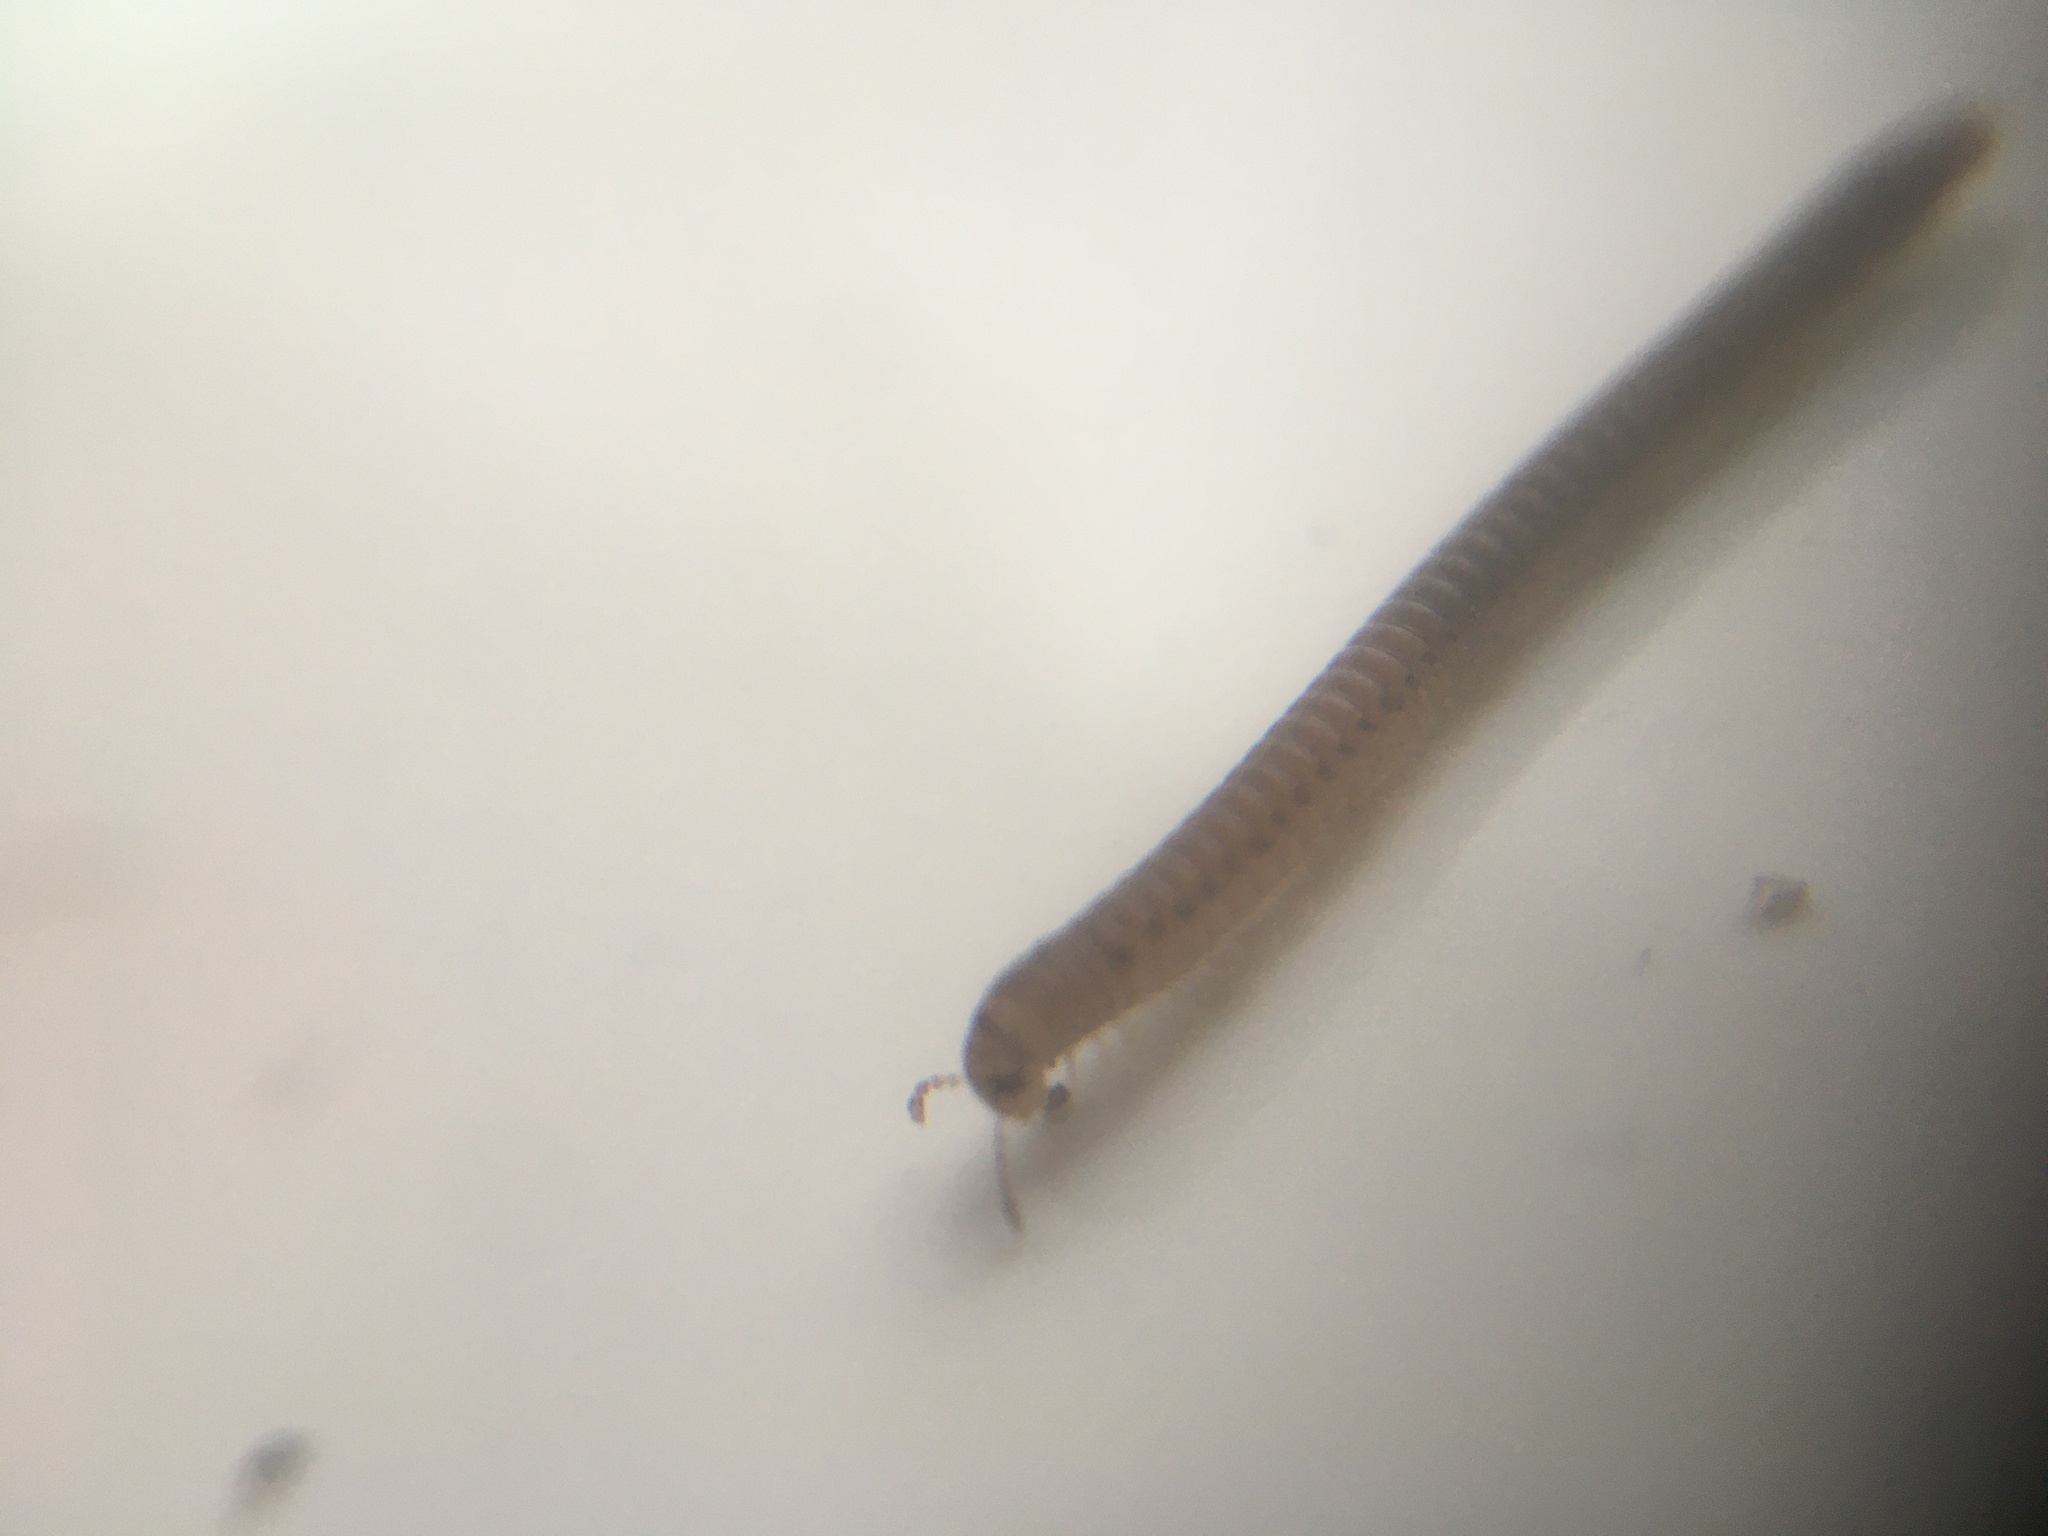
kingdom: Animalia
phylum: Arthropoda
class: Diplopoda
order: Julida
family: Julidae
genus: Cylindroiulus
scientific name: Cylindroiulus punctatus
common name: Blunt-tailed millipede
